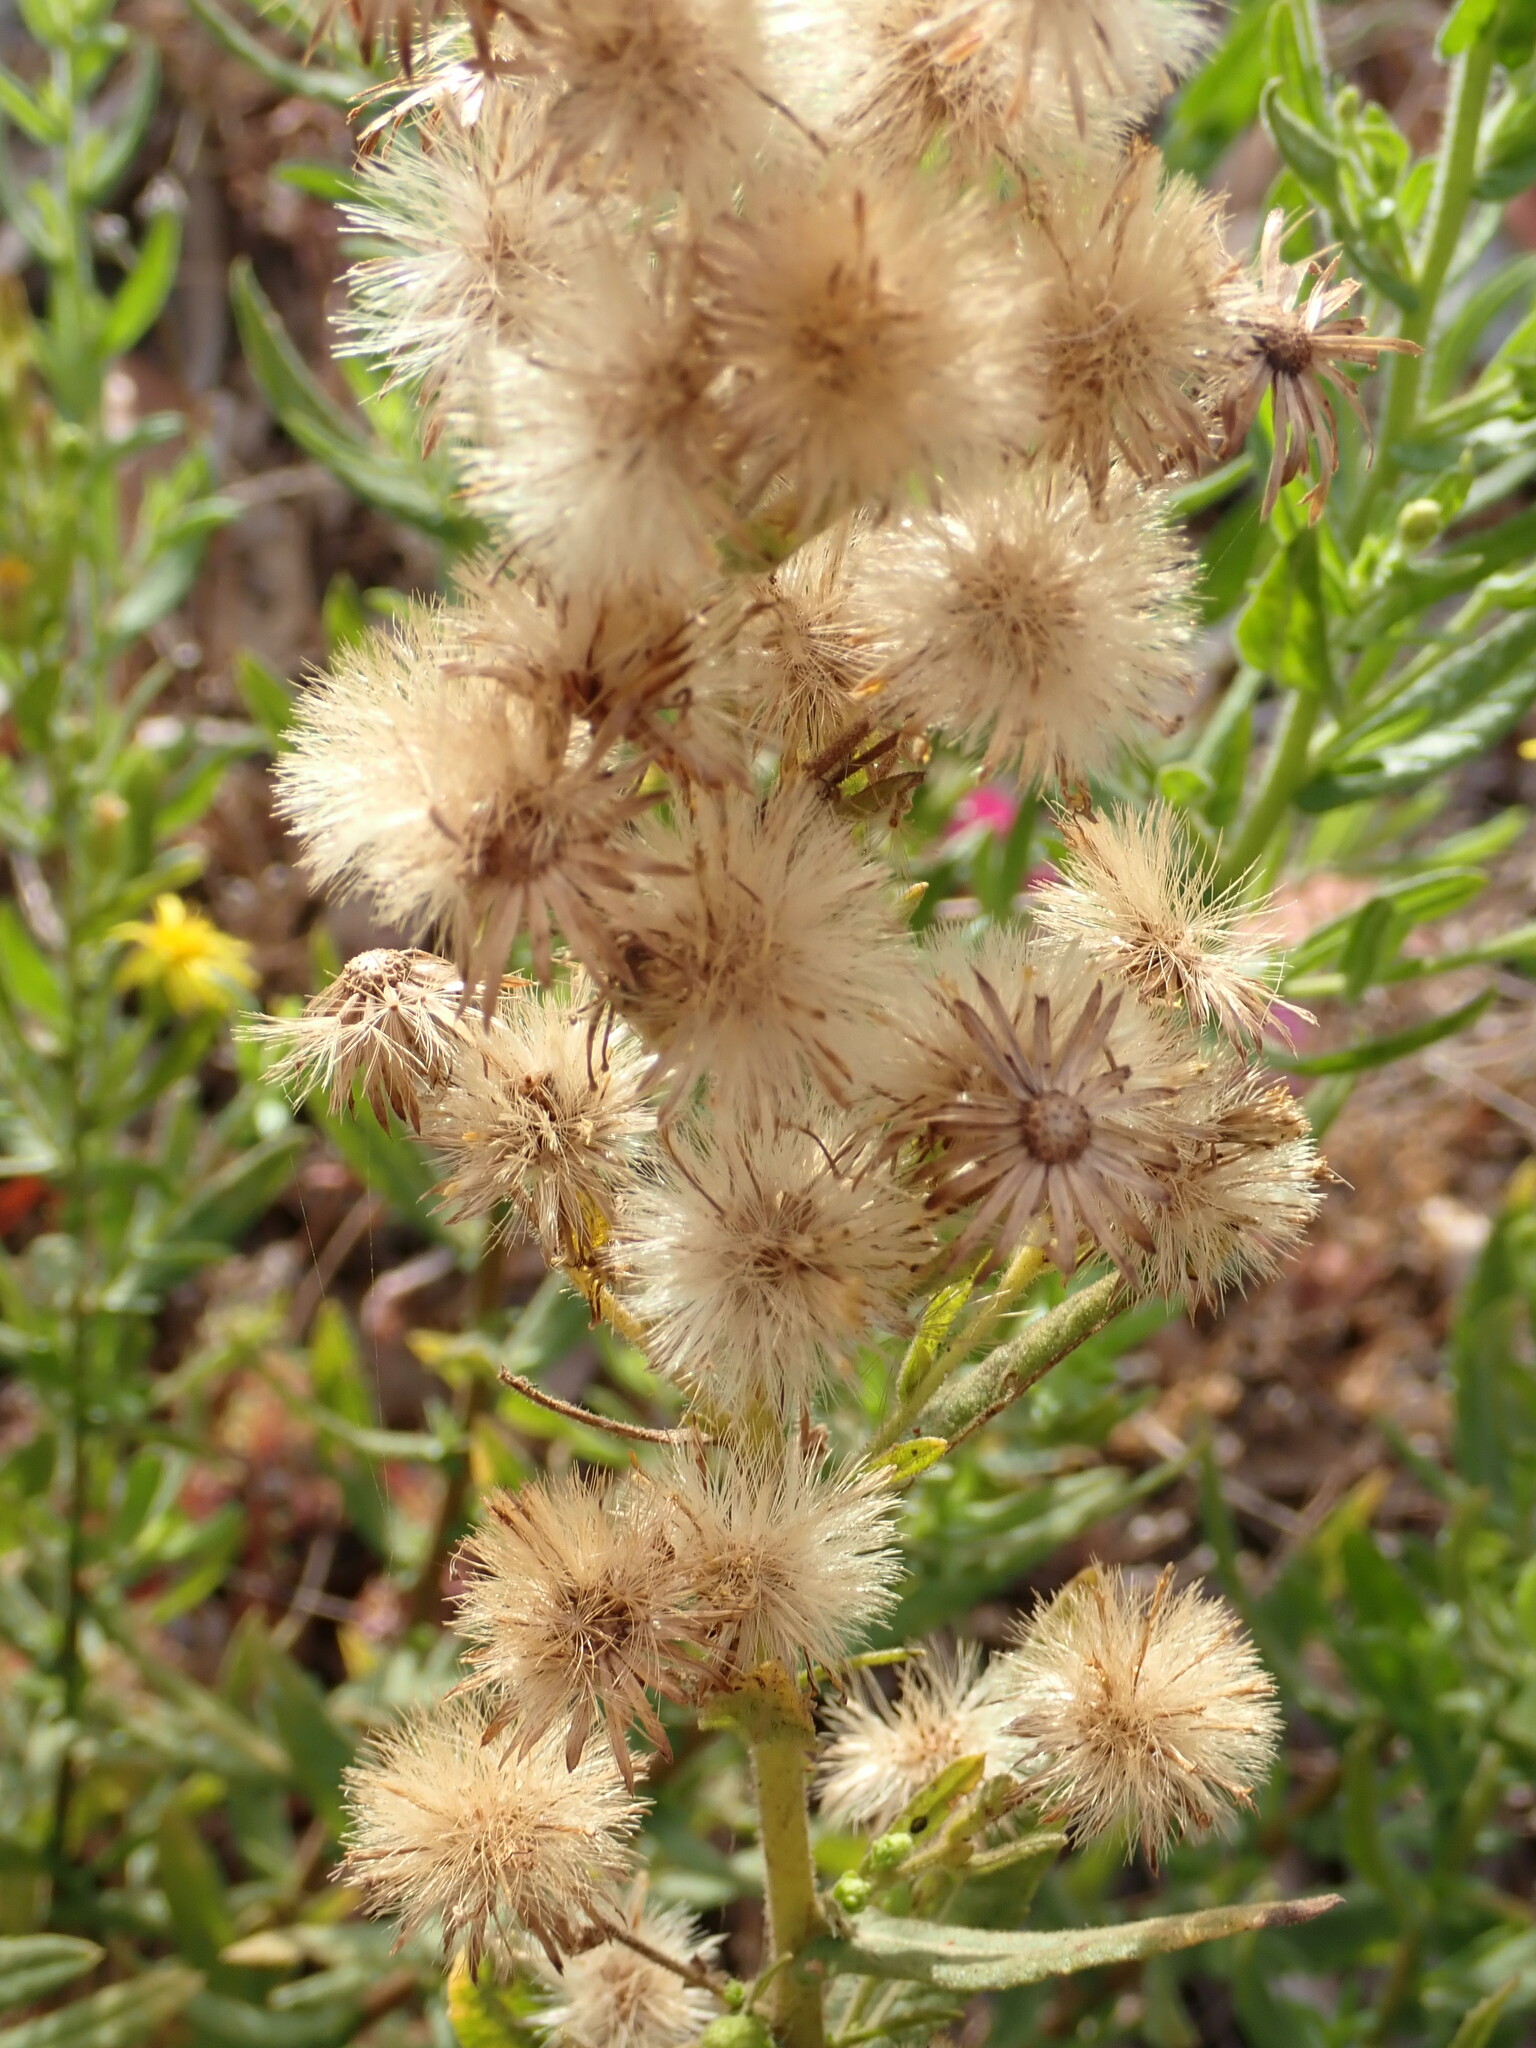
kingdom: Plantae
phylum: Tracheophyta
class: Magnoliopsida
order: Asterales
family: Asteraceae
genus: Dittrichia
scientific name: Dittrichia viscosa
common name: Woody fleabane
